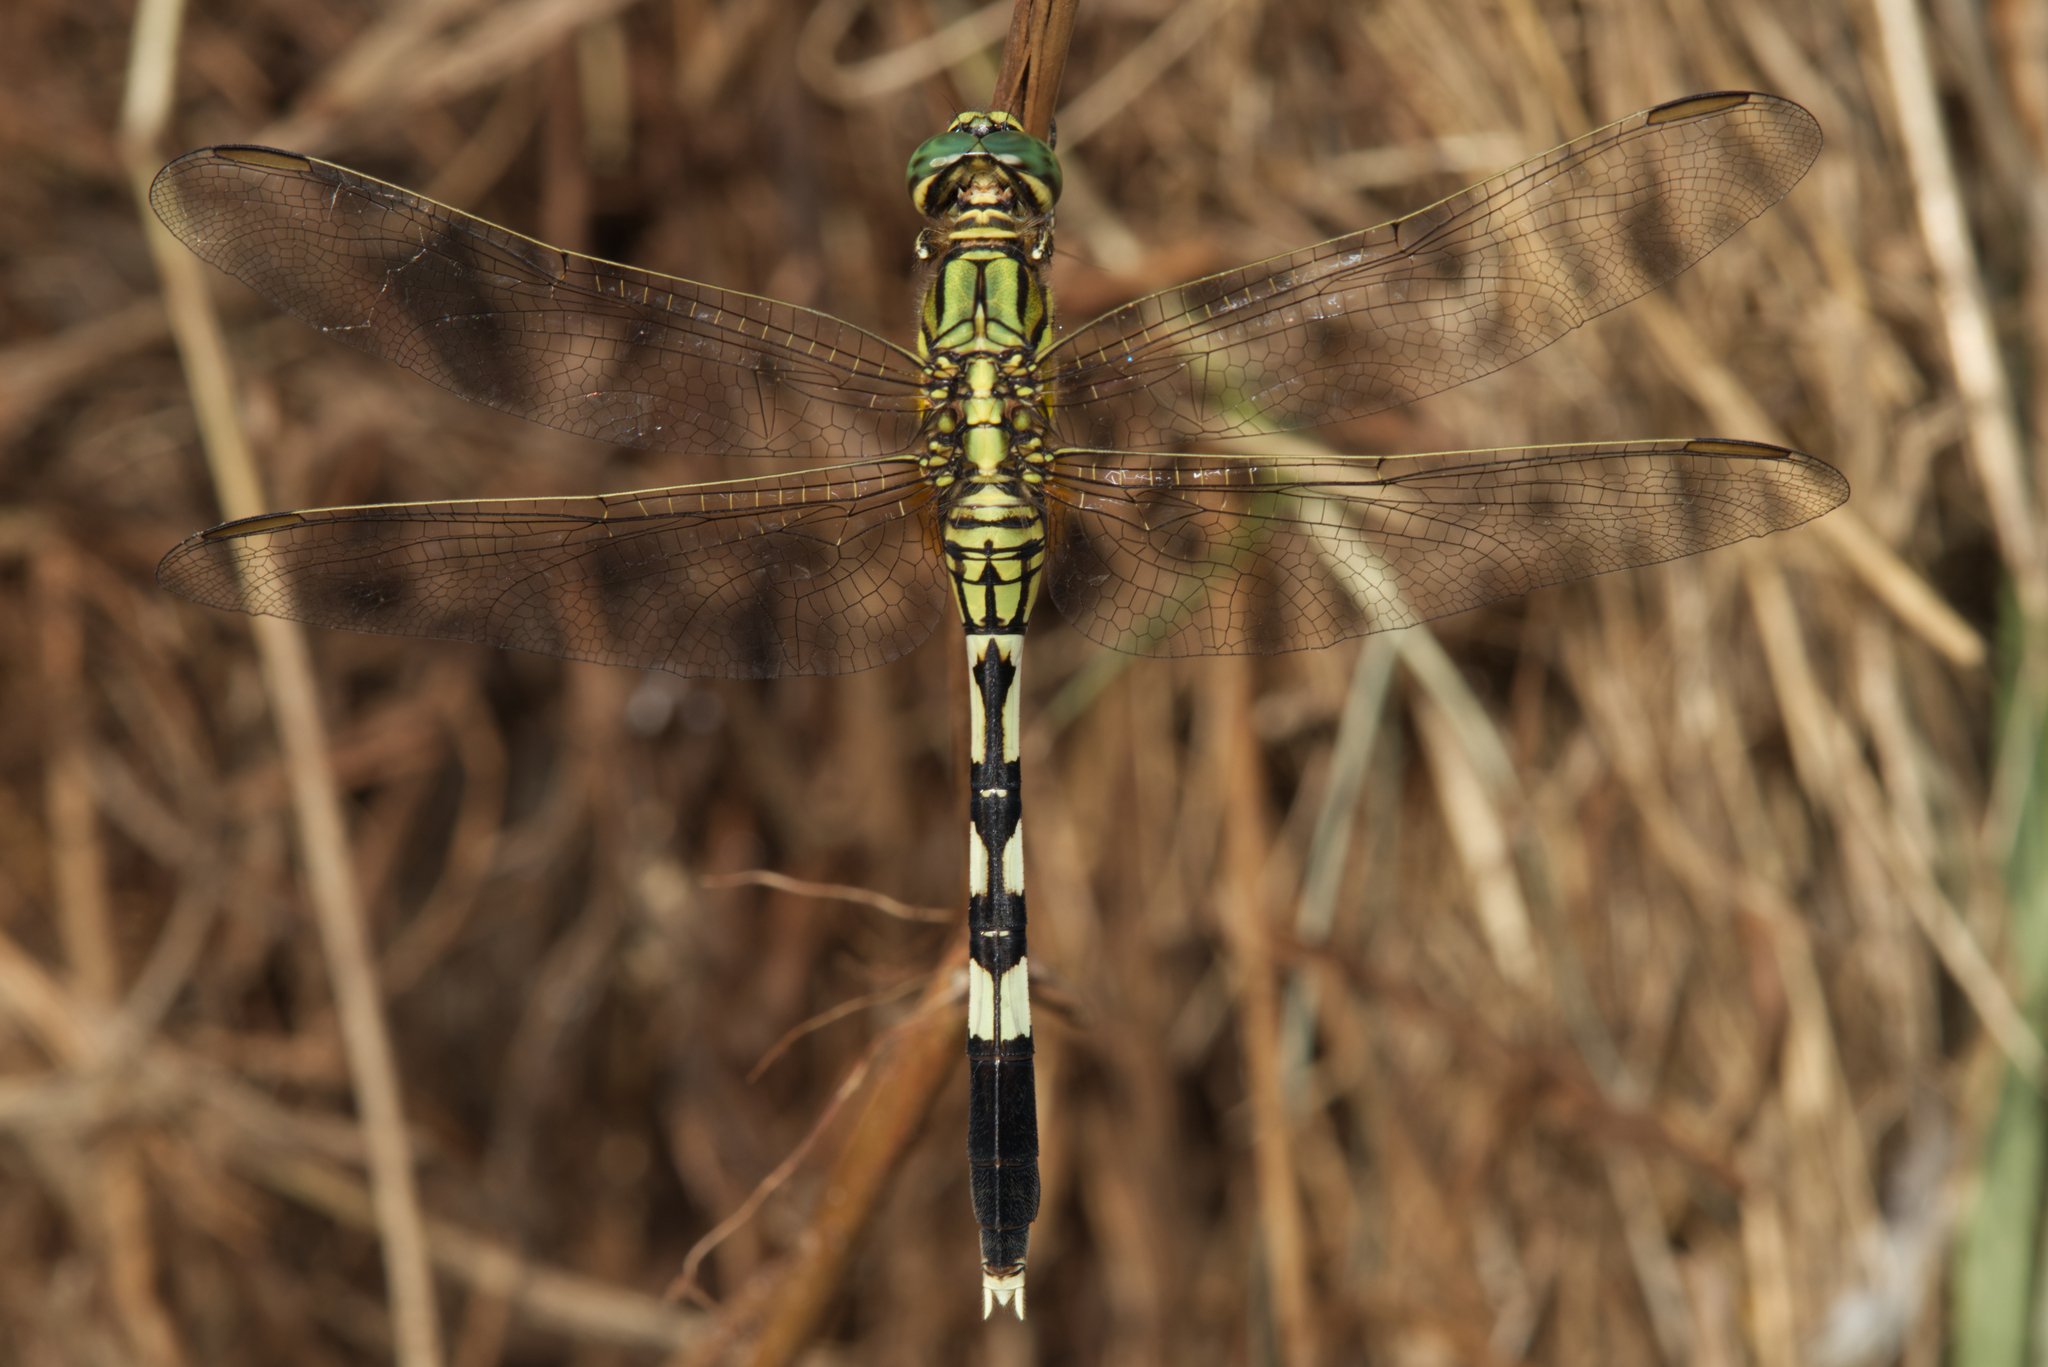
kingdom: Animalia
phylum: Arthropoda
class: Insecta
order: Odonata
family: Libellulidae
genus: Orthetrum
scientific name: Orthetrum sabina
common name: Slender skimmer
